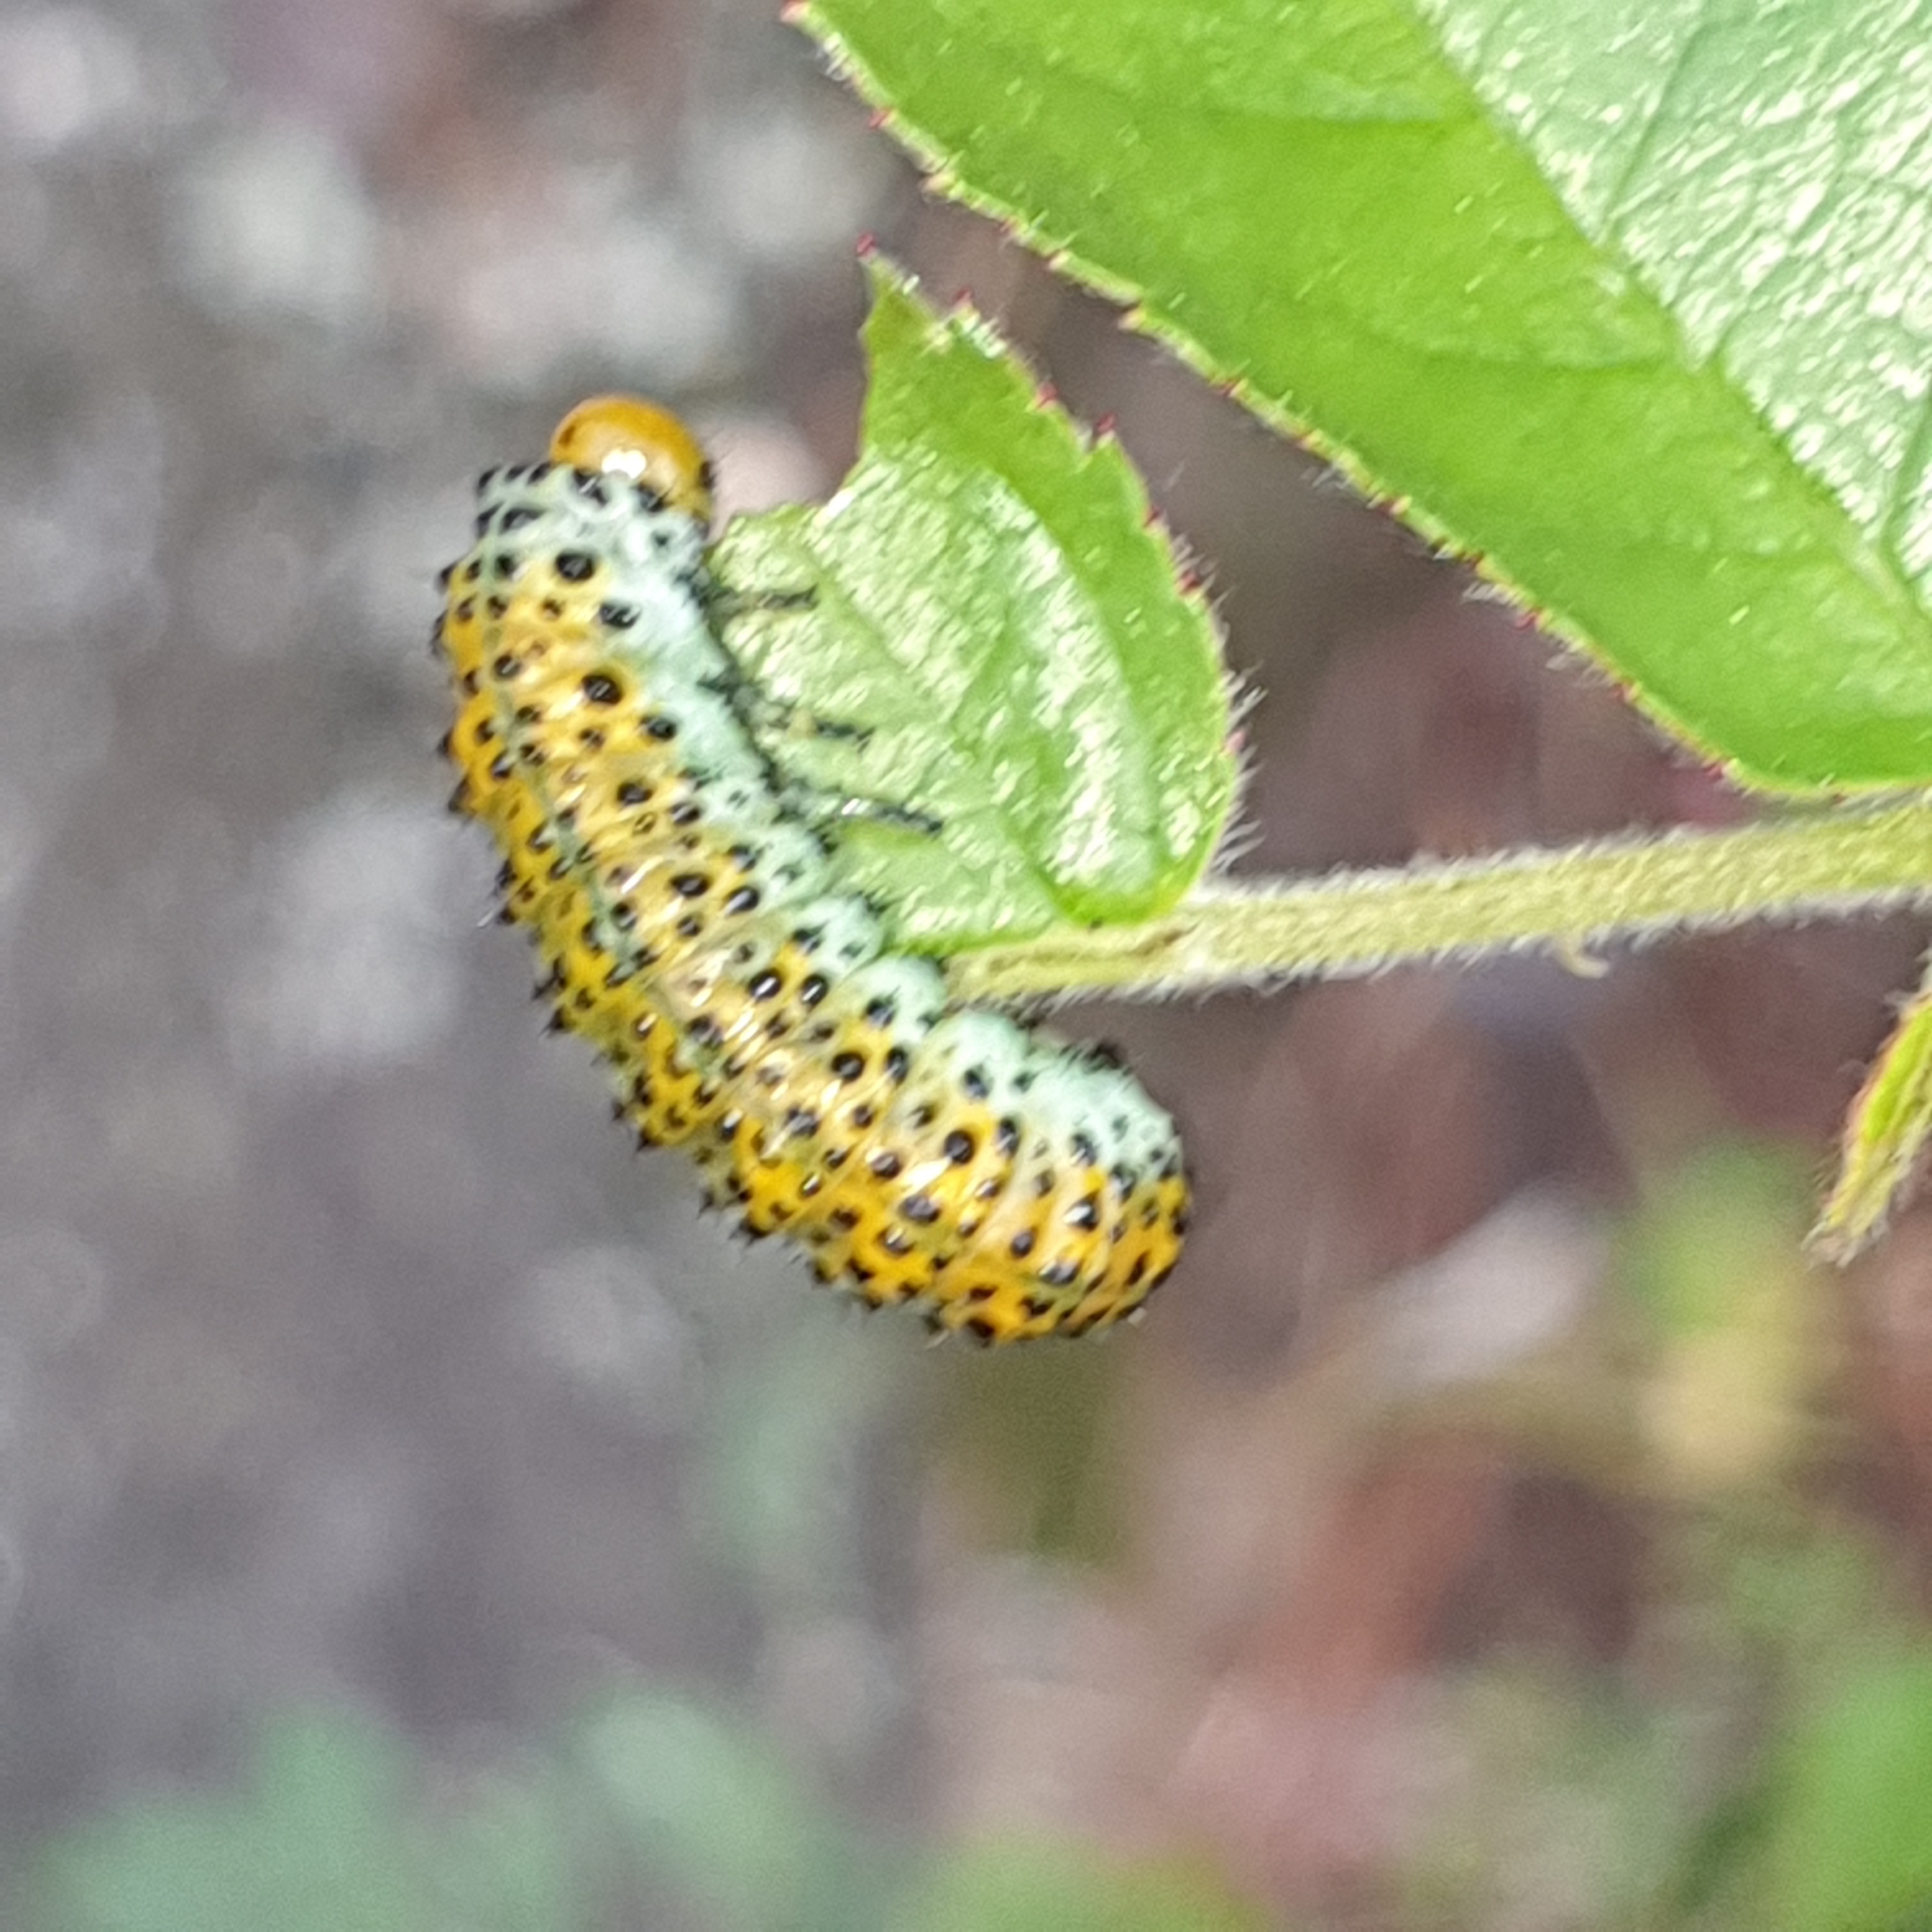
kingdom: Animalia
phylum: Arthropoda
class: Insecta
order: Hymenoptera
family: Argidae
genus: Arge
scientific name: Arge ochropus
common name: Argid sawfly
